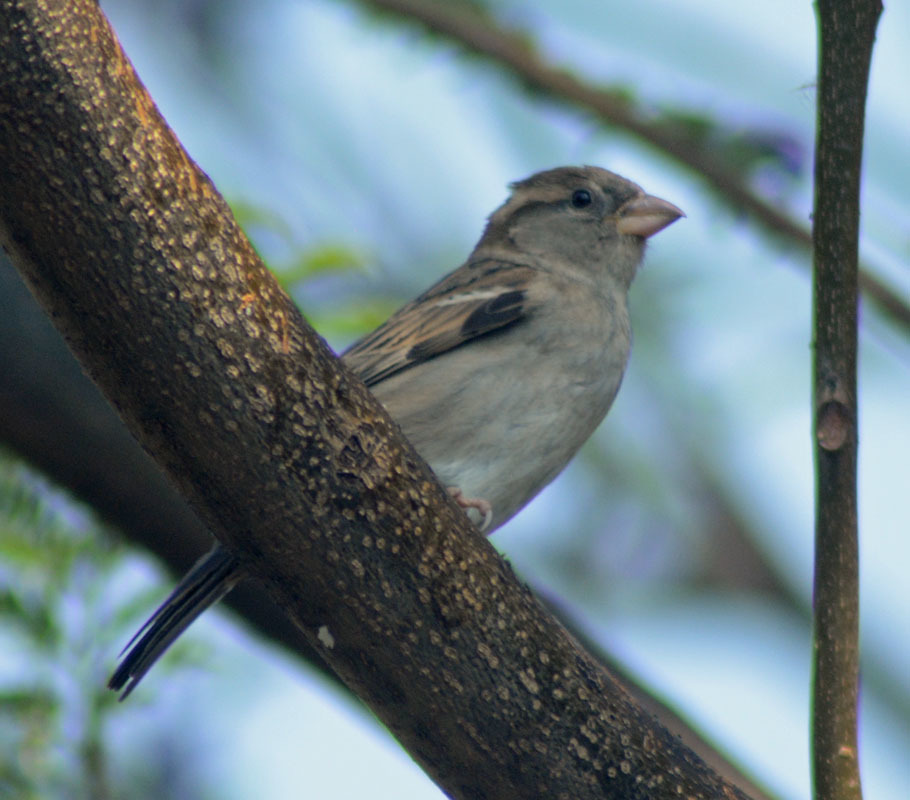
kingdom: Animalia
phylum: Chordata
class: Aves
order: Passeriformes
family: Passeridae
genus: Passer
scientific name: Passer domesticus
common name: House sparrow
